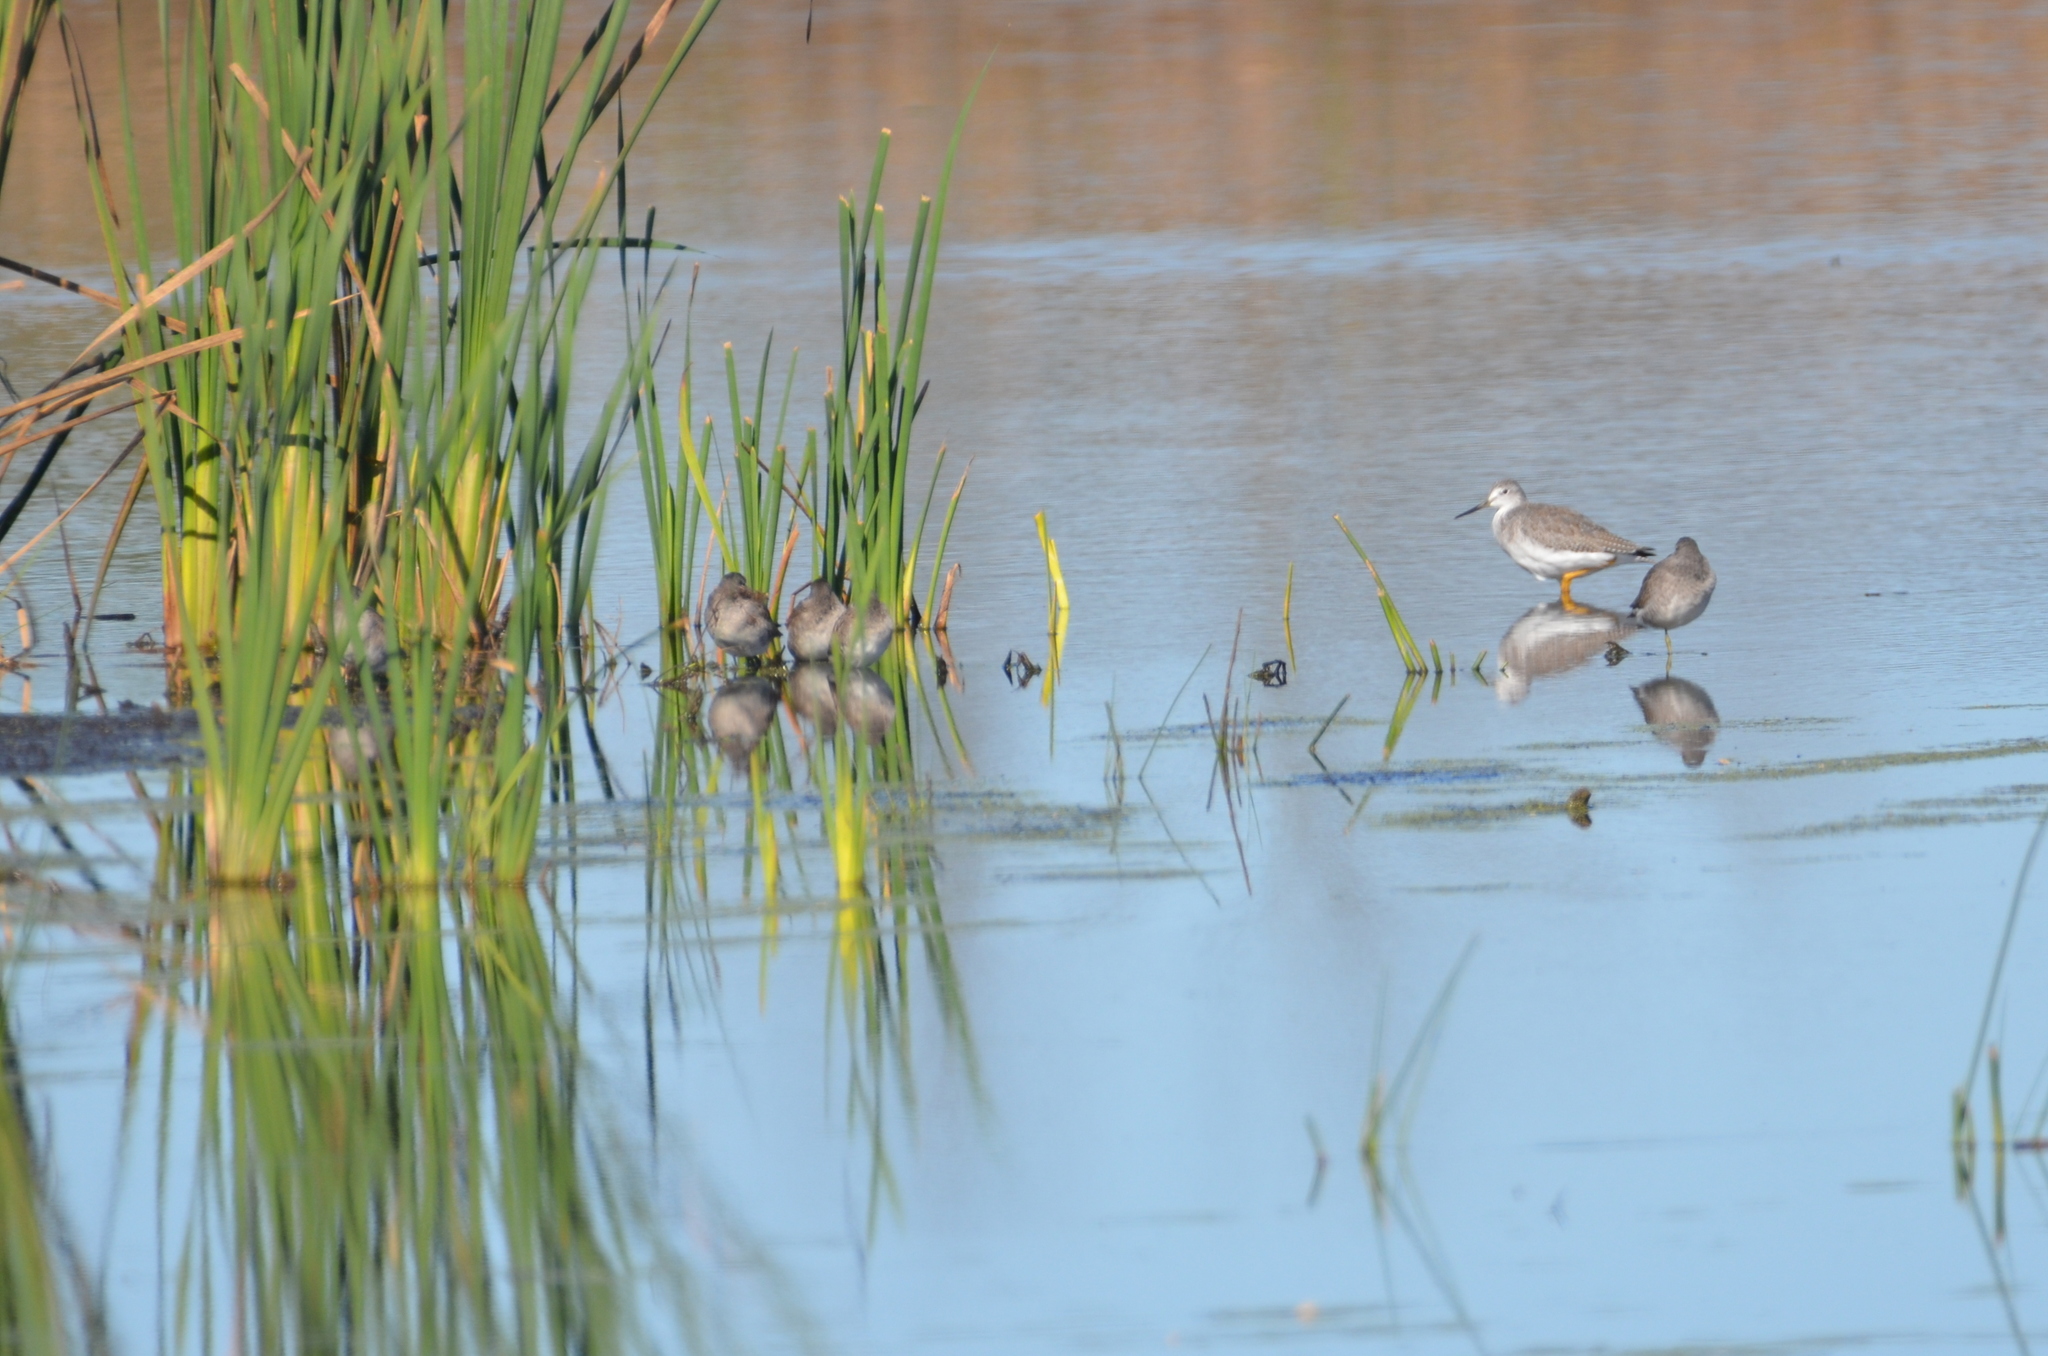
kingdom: Animalia
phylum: Chordata
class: Aves
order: Charadriiformes
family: Scolopacidae
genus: Tringa
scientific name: Tringa melanoleuca
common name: Greater yellowlegs
